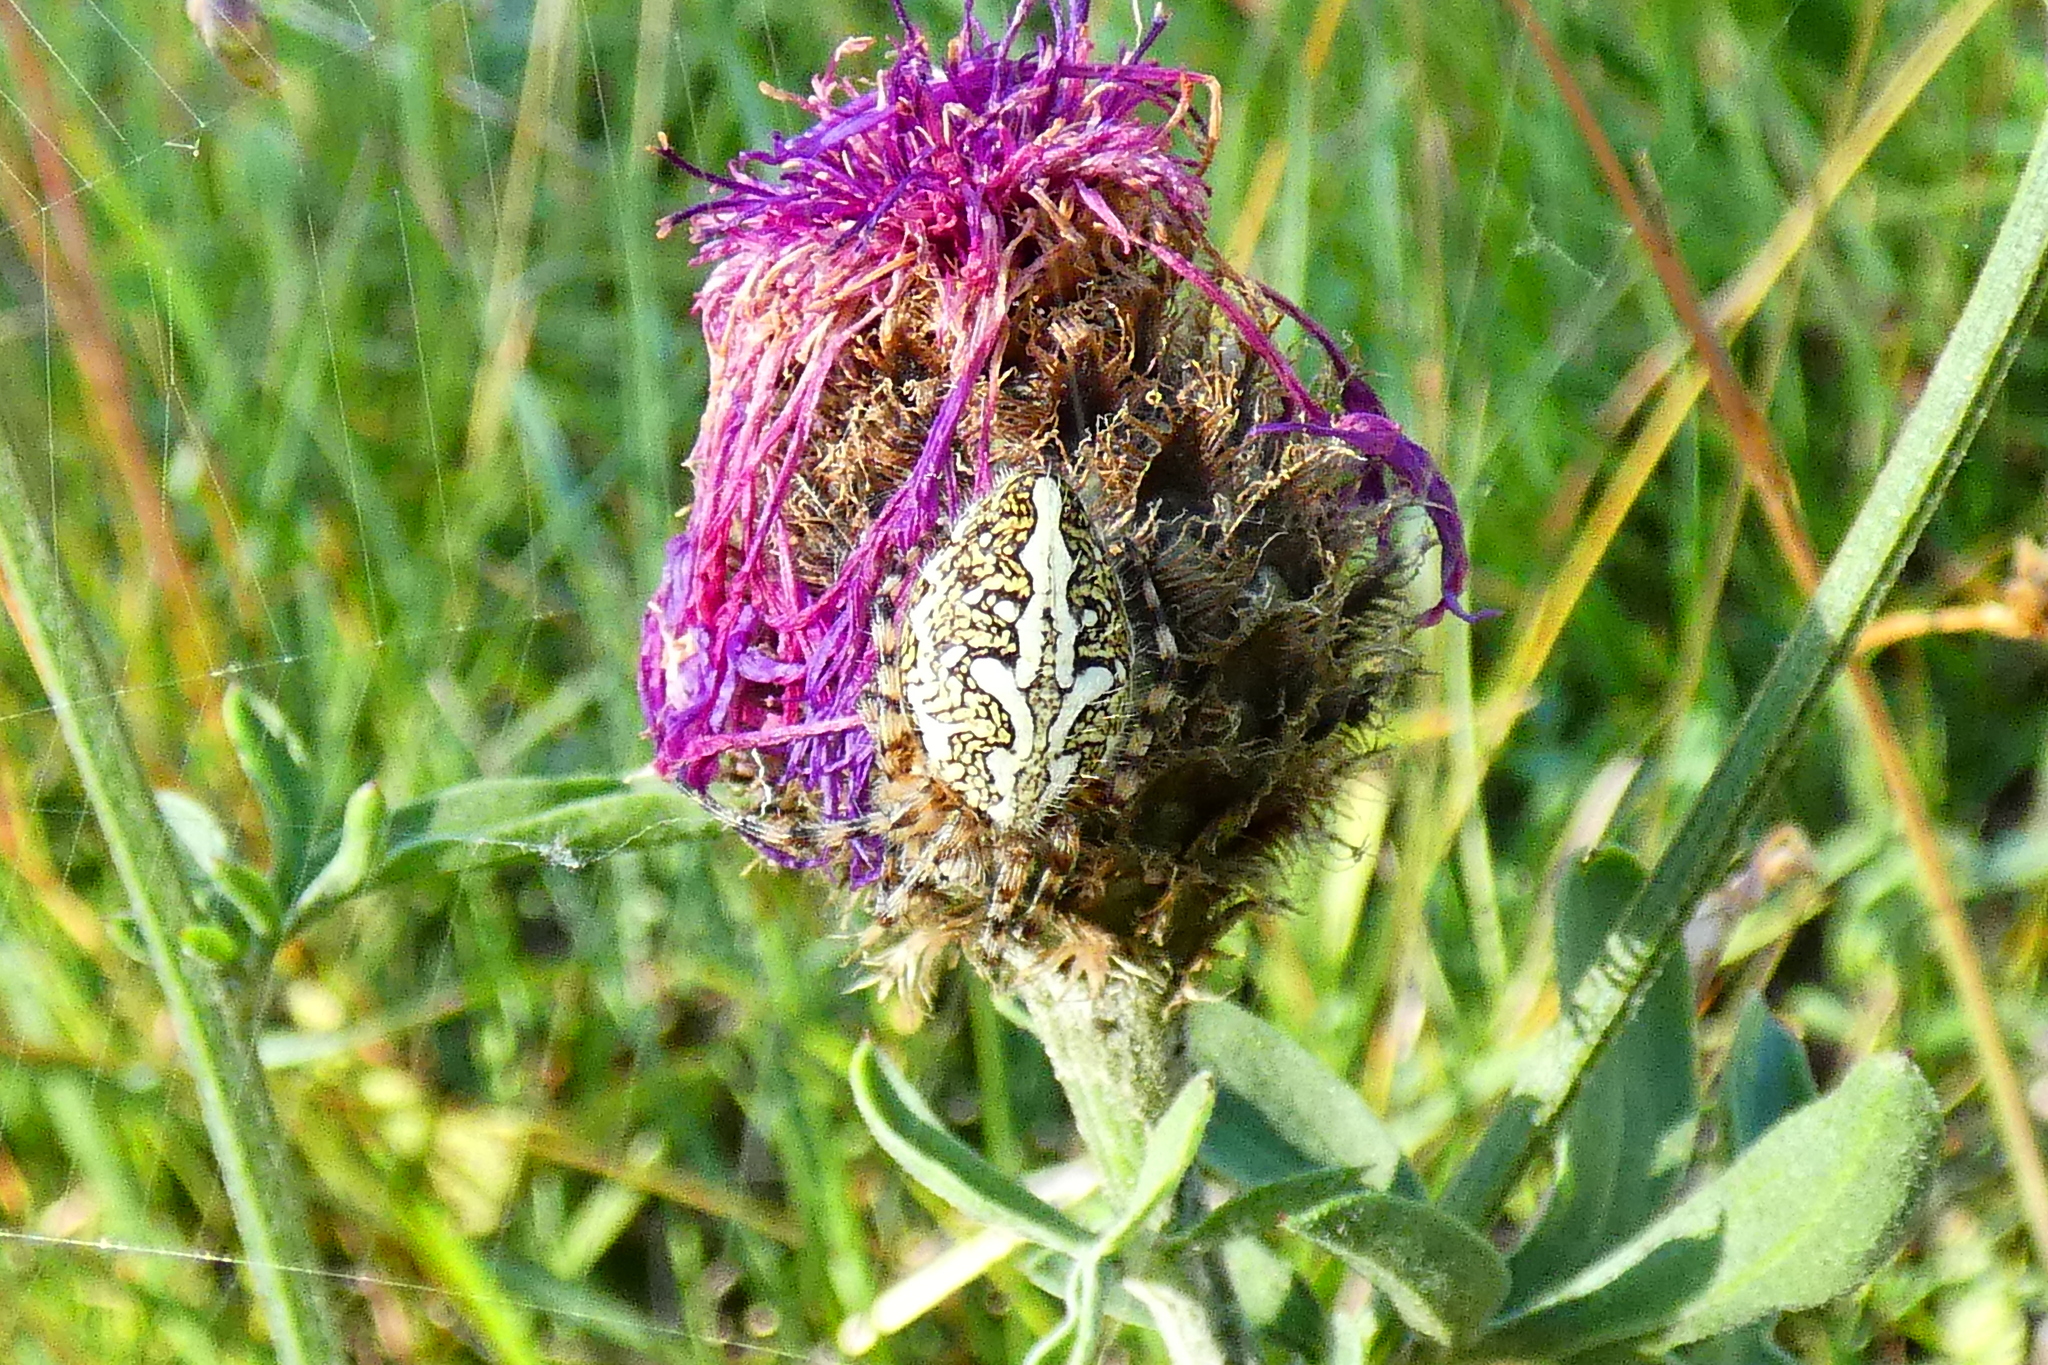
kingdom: Animalia
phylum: Arthropoda
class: Arachnida
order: Araneae
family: Araneidae
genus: Aculepeira
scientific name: Aculepeira ceropegia
